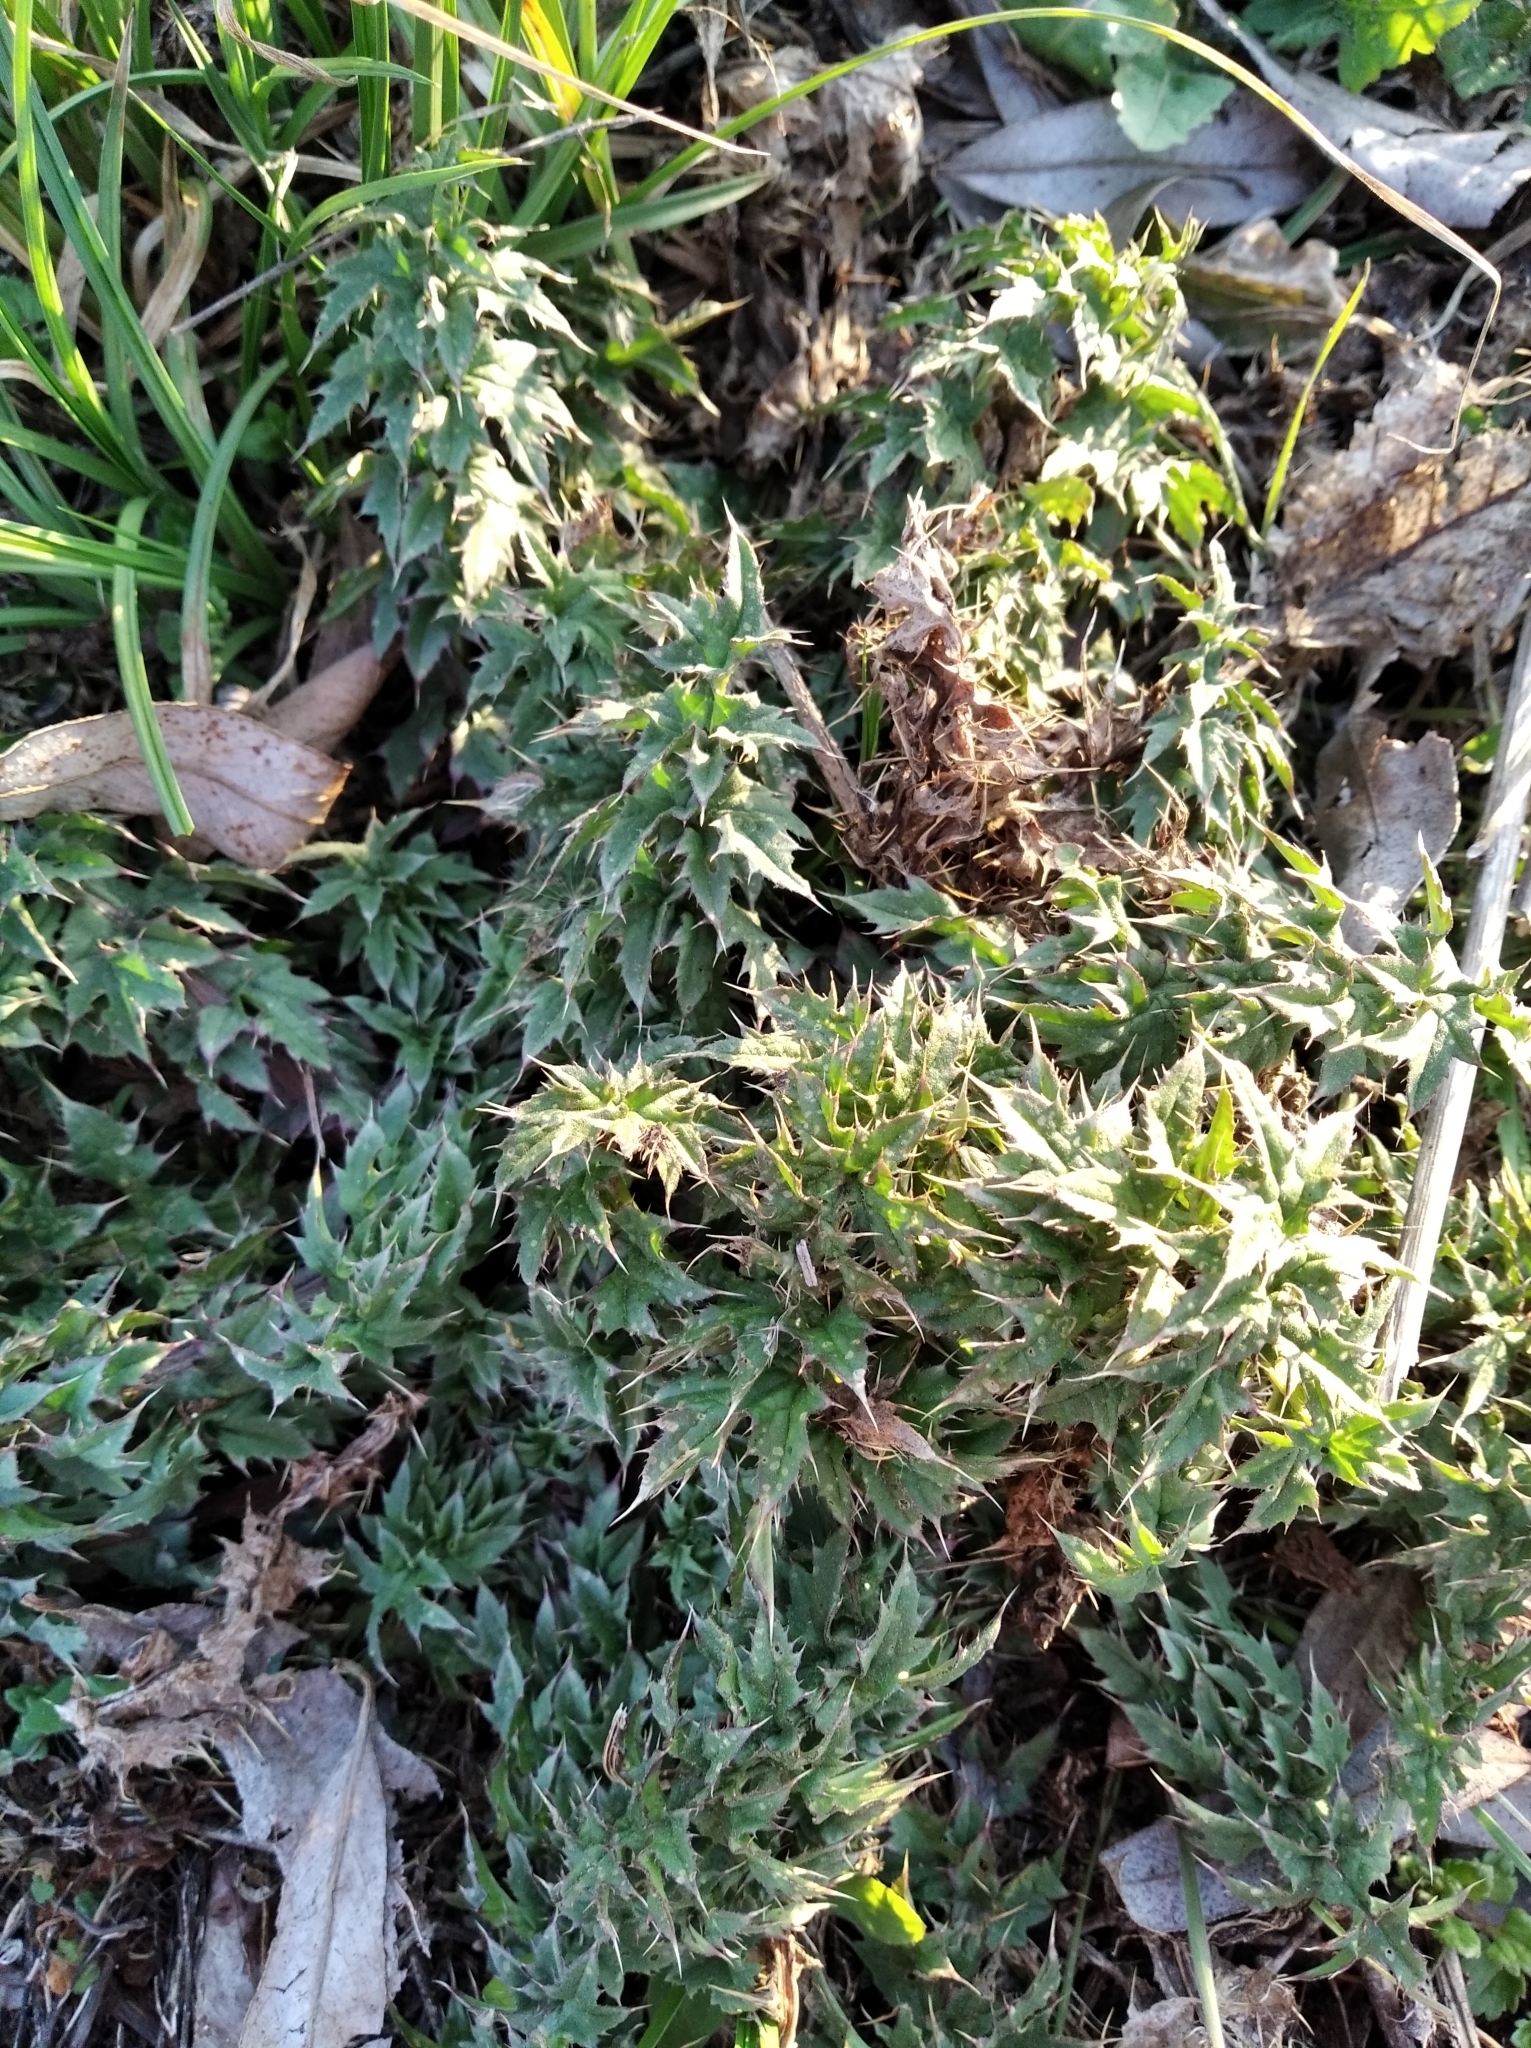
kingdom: Plantae
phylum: Tracheophyta
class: Magnoliopsida
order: Asterales
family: Asteraceae
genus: Carduus
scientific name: Carduus acanthoides
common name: Plumeless thistle
